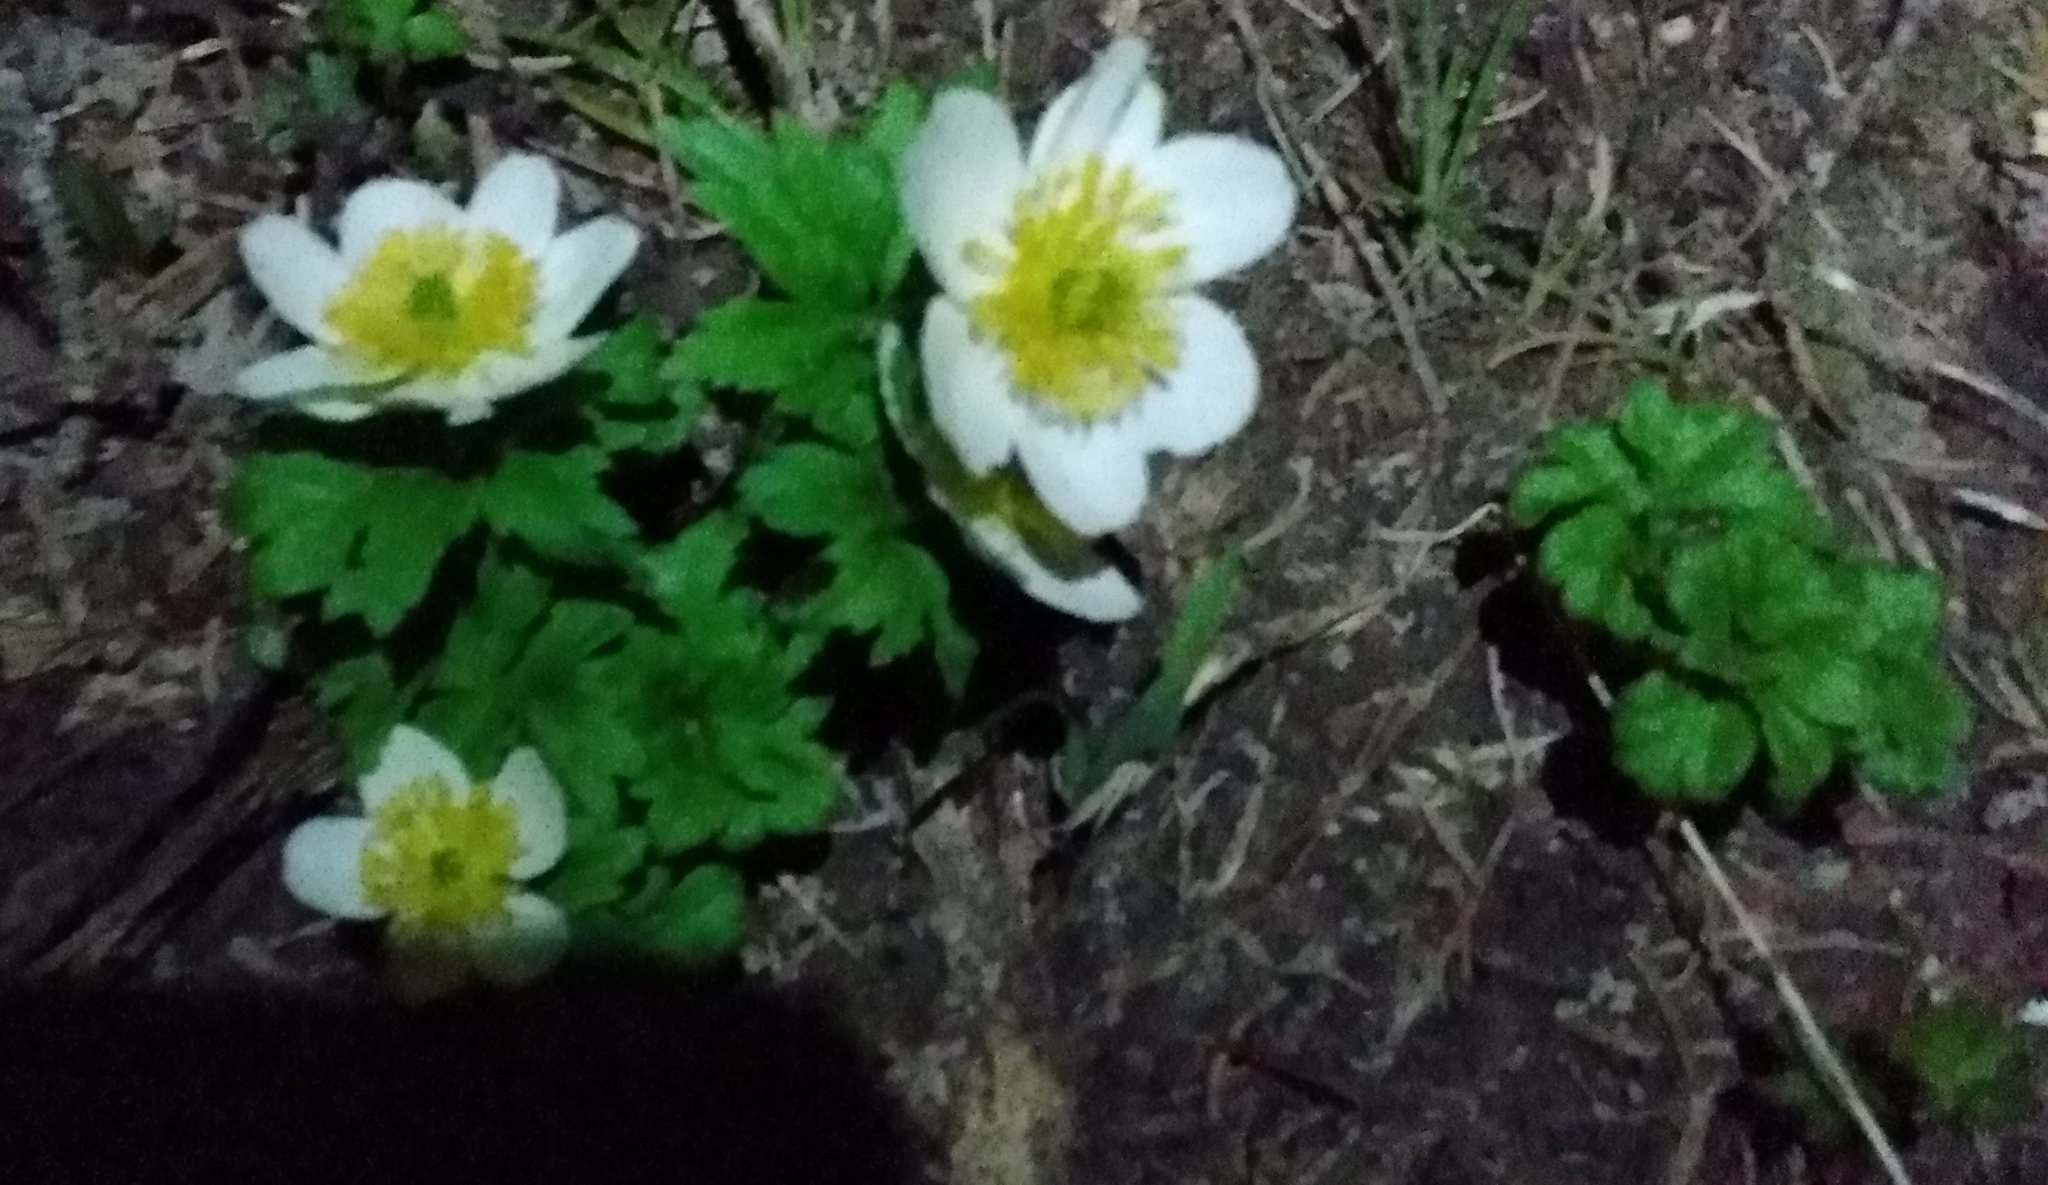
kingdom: Plantae
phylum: Tracheophyta
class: Magnoliopsida
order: Ranunculales
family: Ranunculaceae
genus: Trollius
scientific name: Trollius laxus
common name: American globeflower
